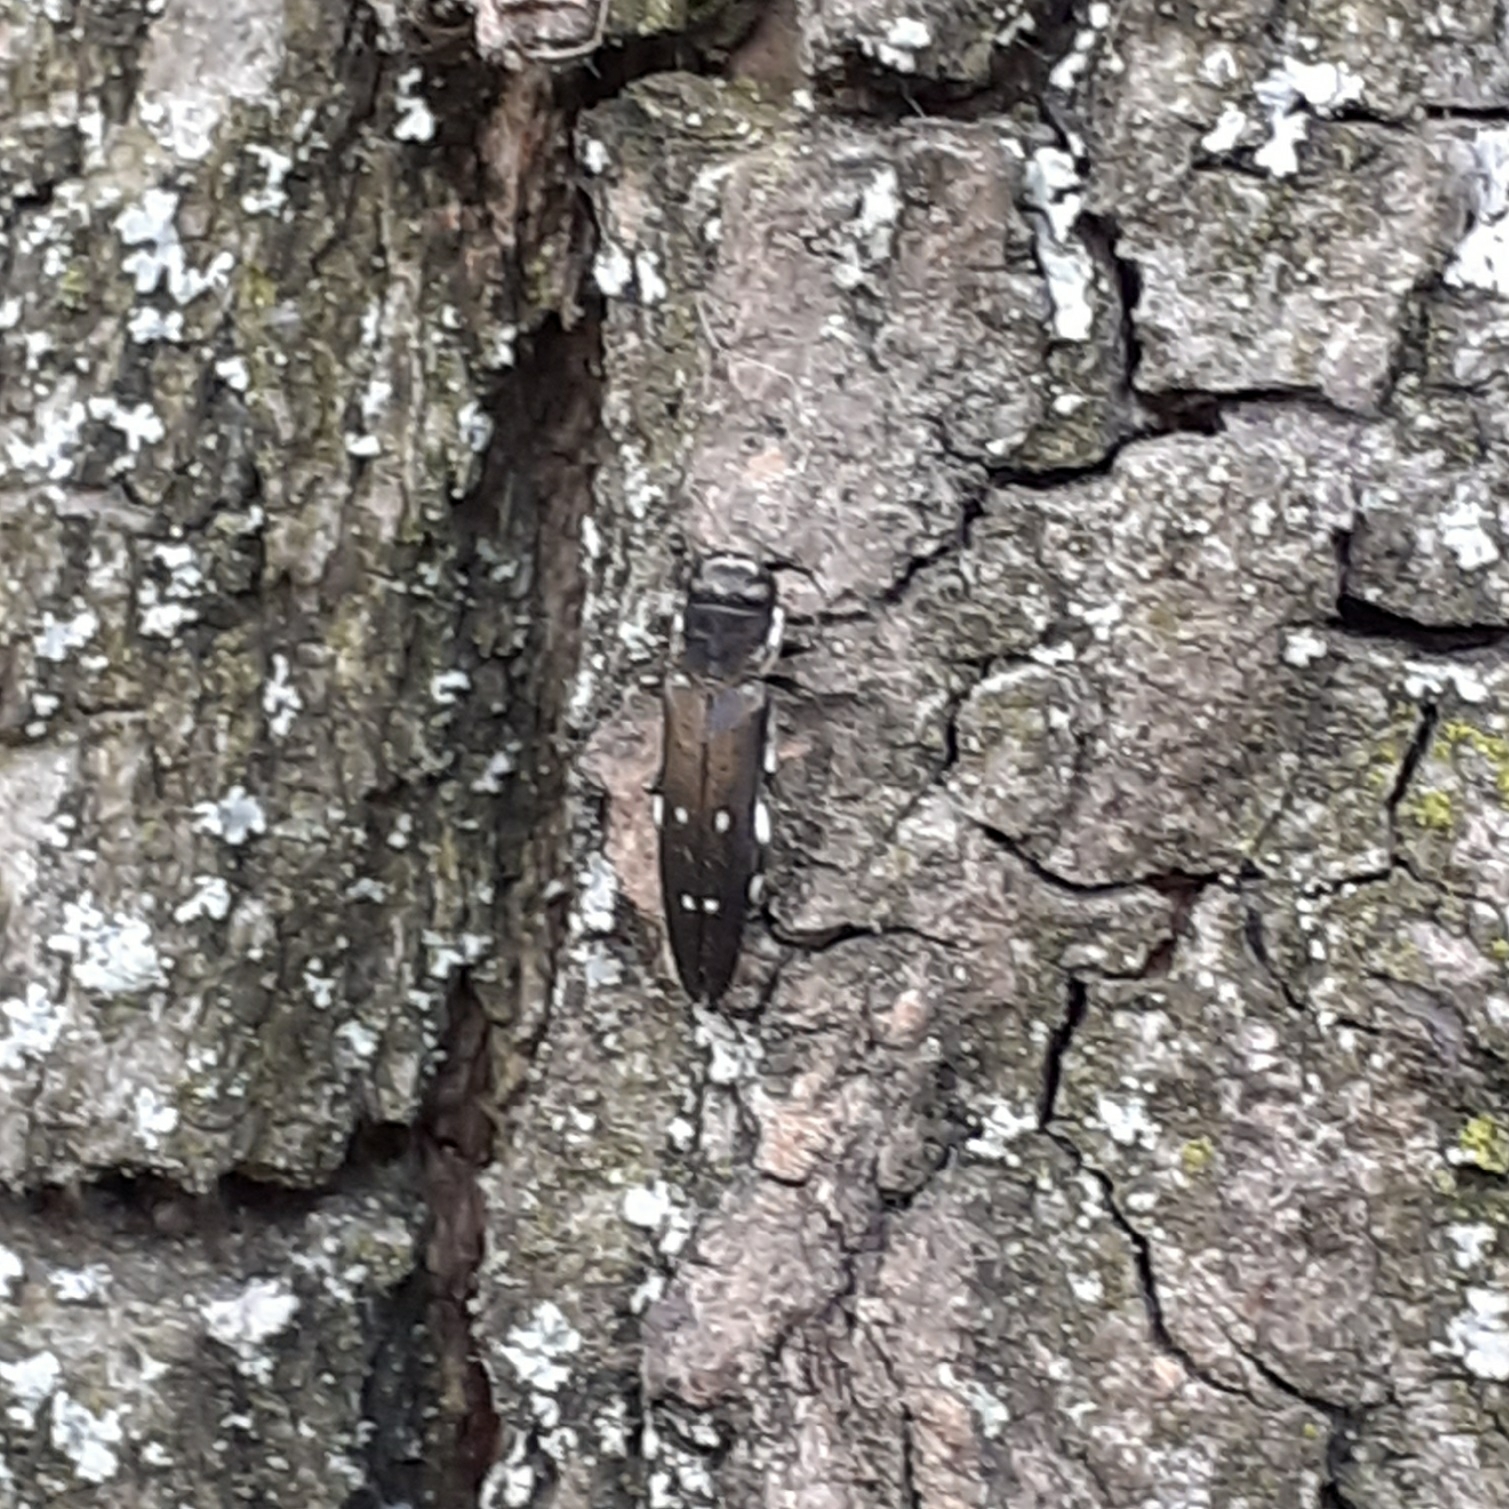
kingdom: Animalia
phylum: Arthropoda
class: Insecta
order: Coleoptera
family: Buprestidae
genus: Agrilus
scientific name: Agrilus ater
